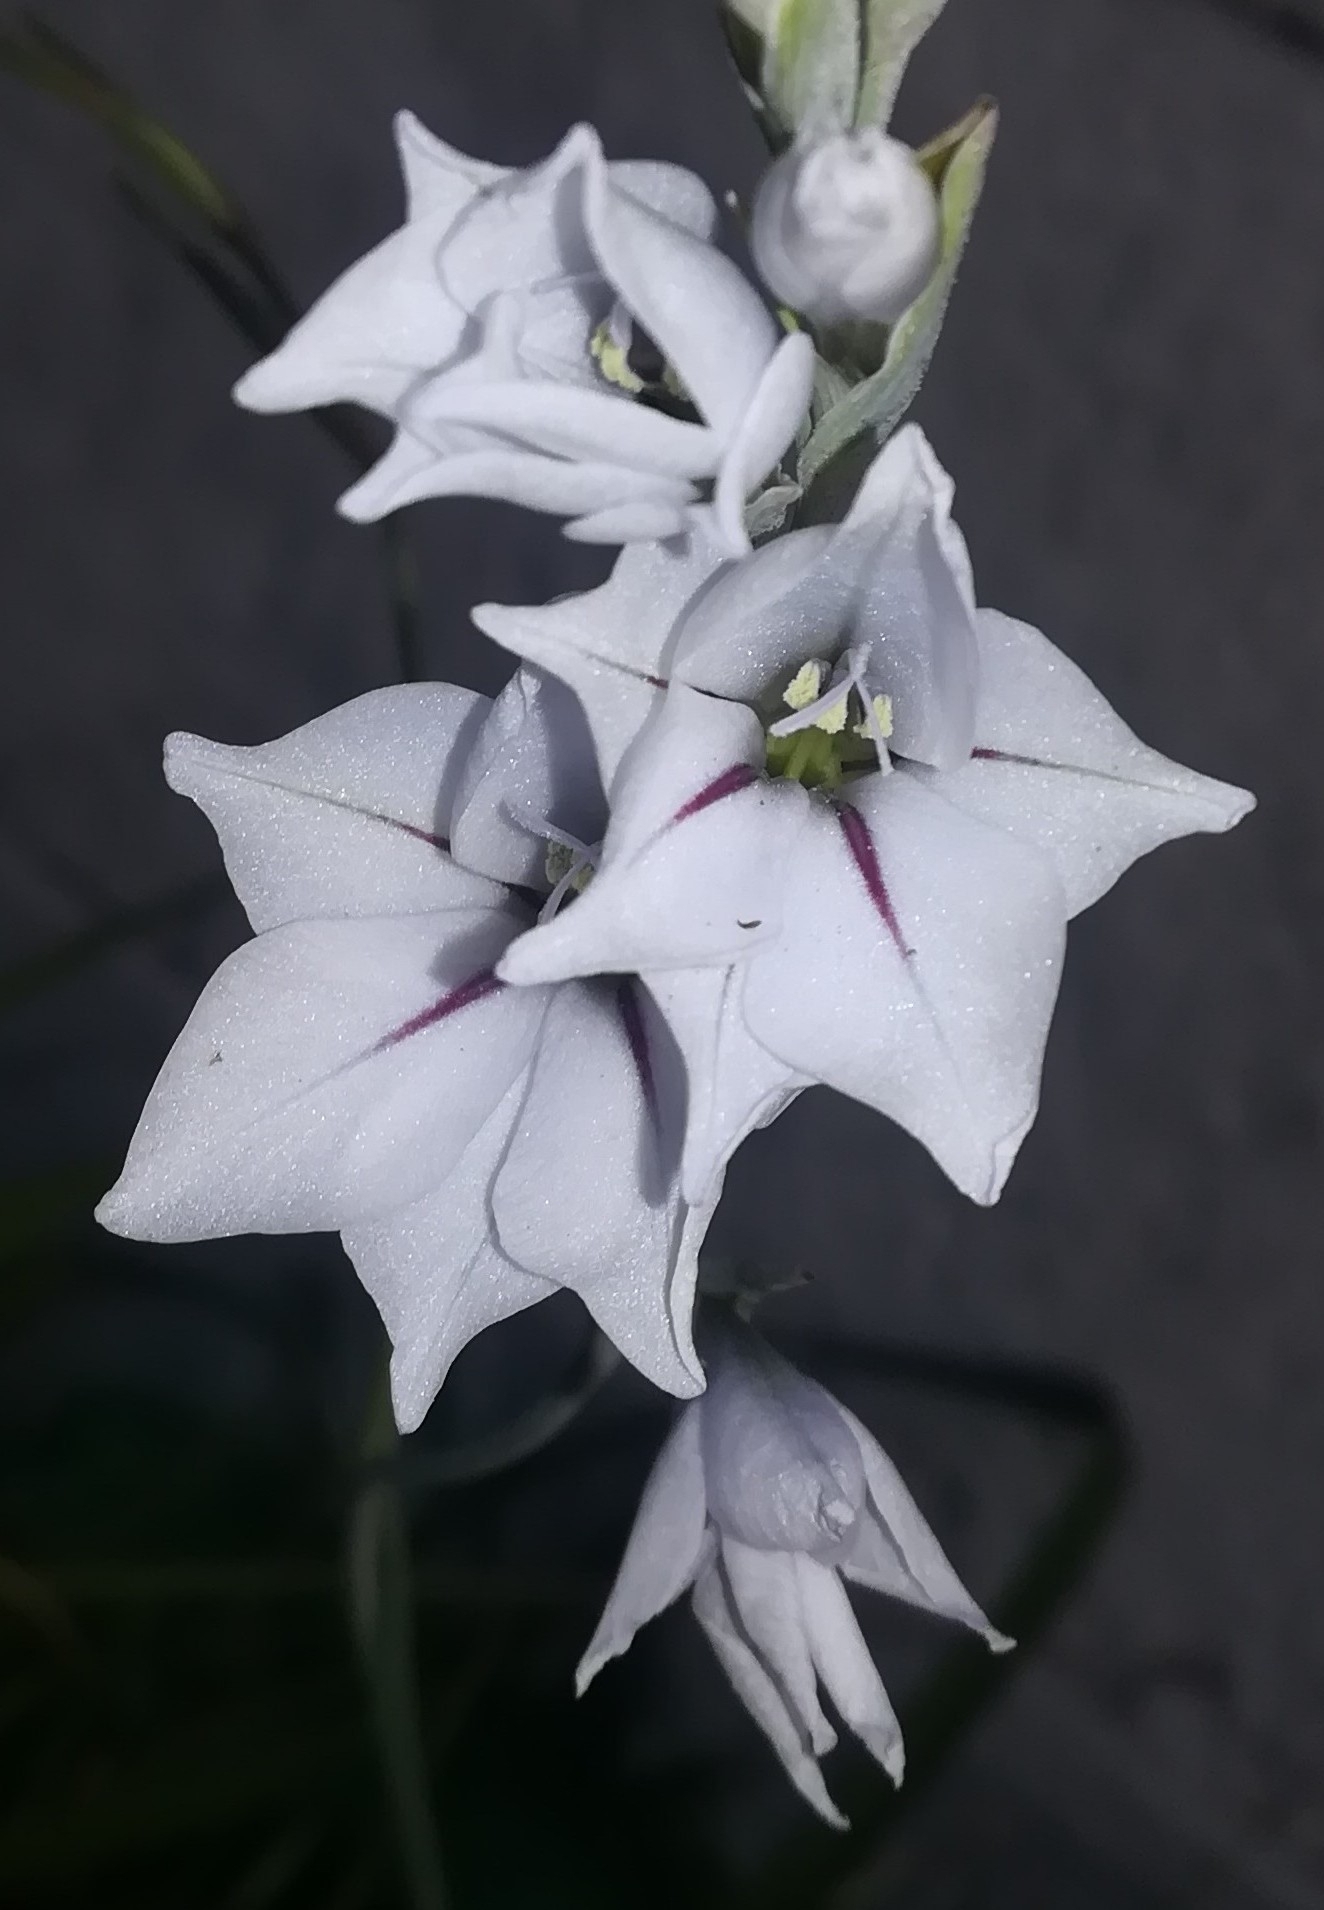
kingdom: Plantae
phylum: Tracheophyta
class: Liliopsida
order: Asparagales
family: Iridaceae
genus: Gladiolus
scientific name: Gladiolus wilsonii
